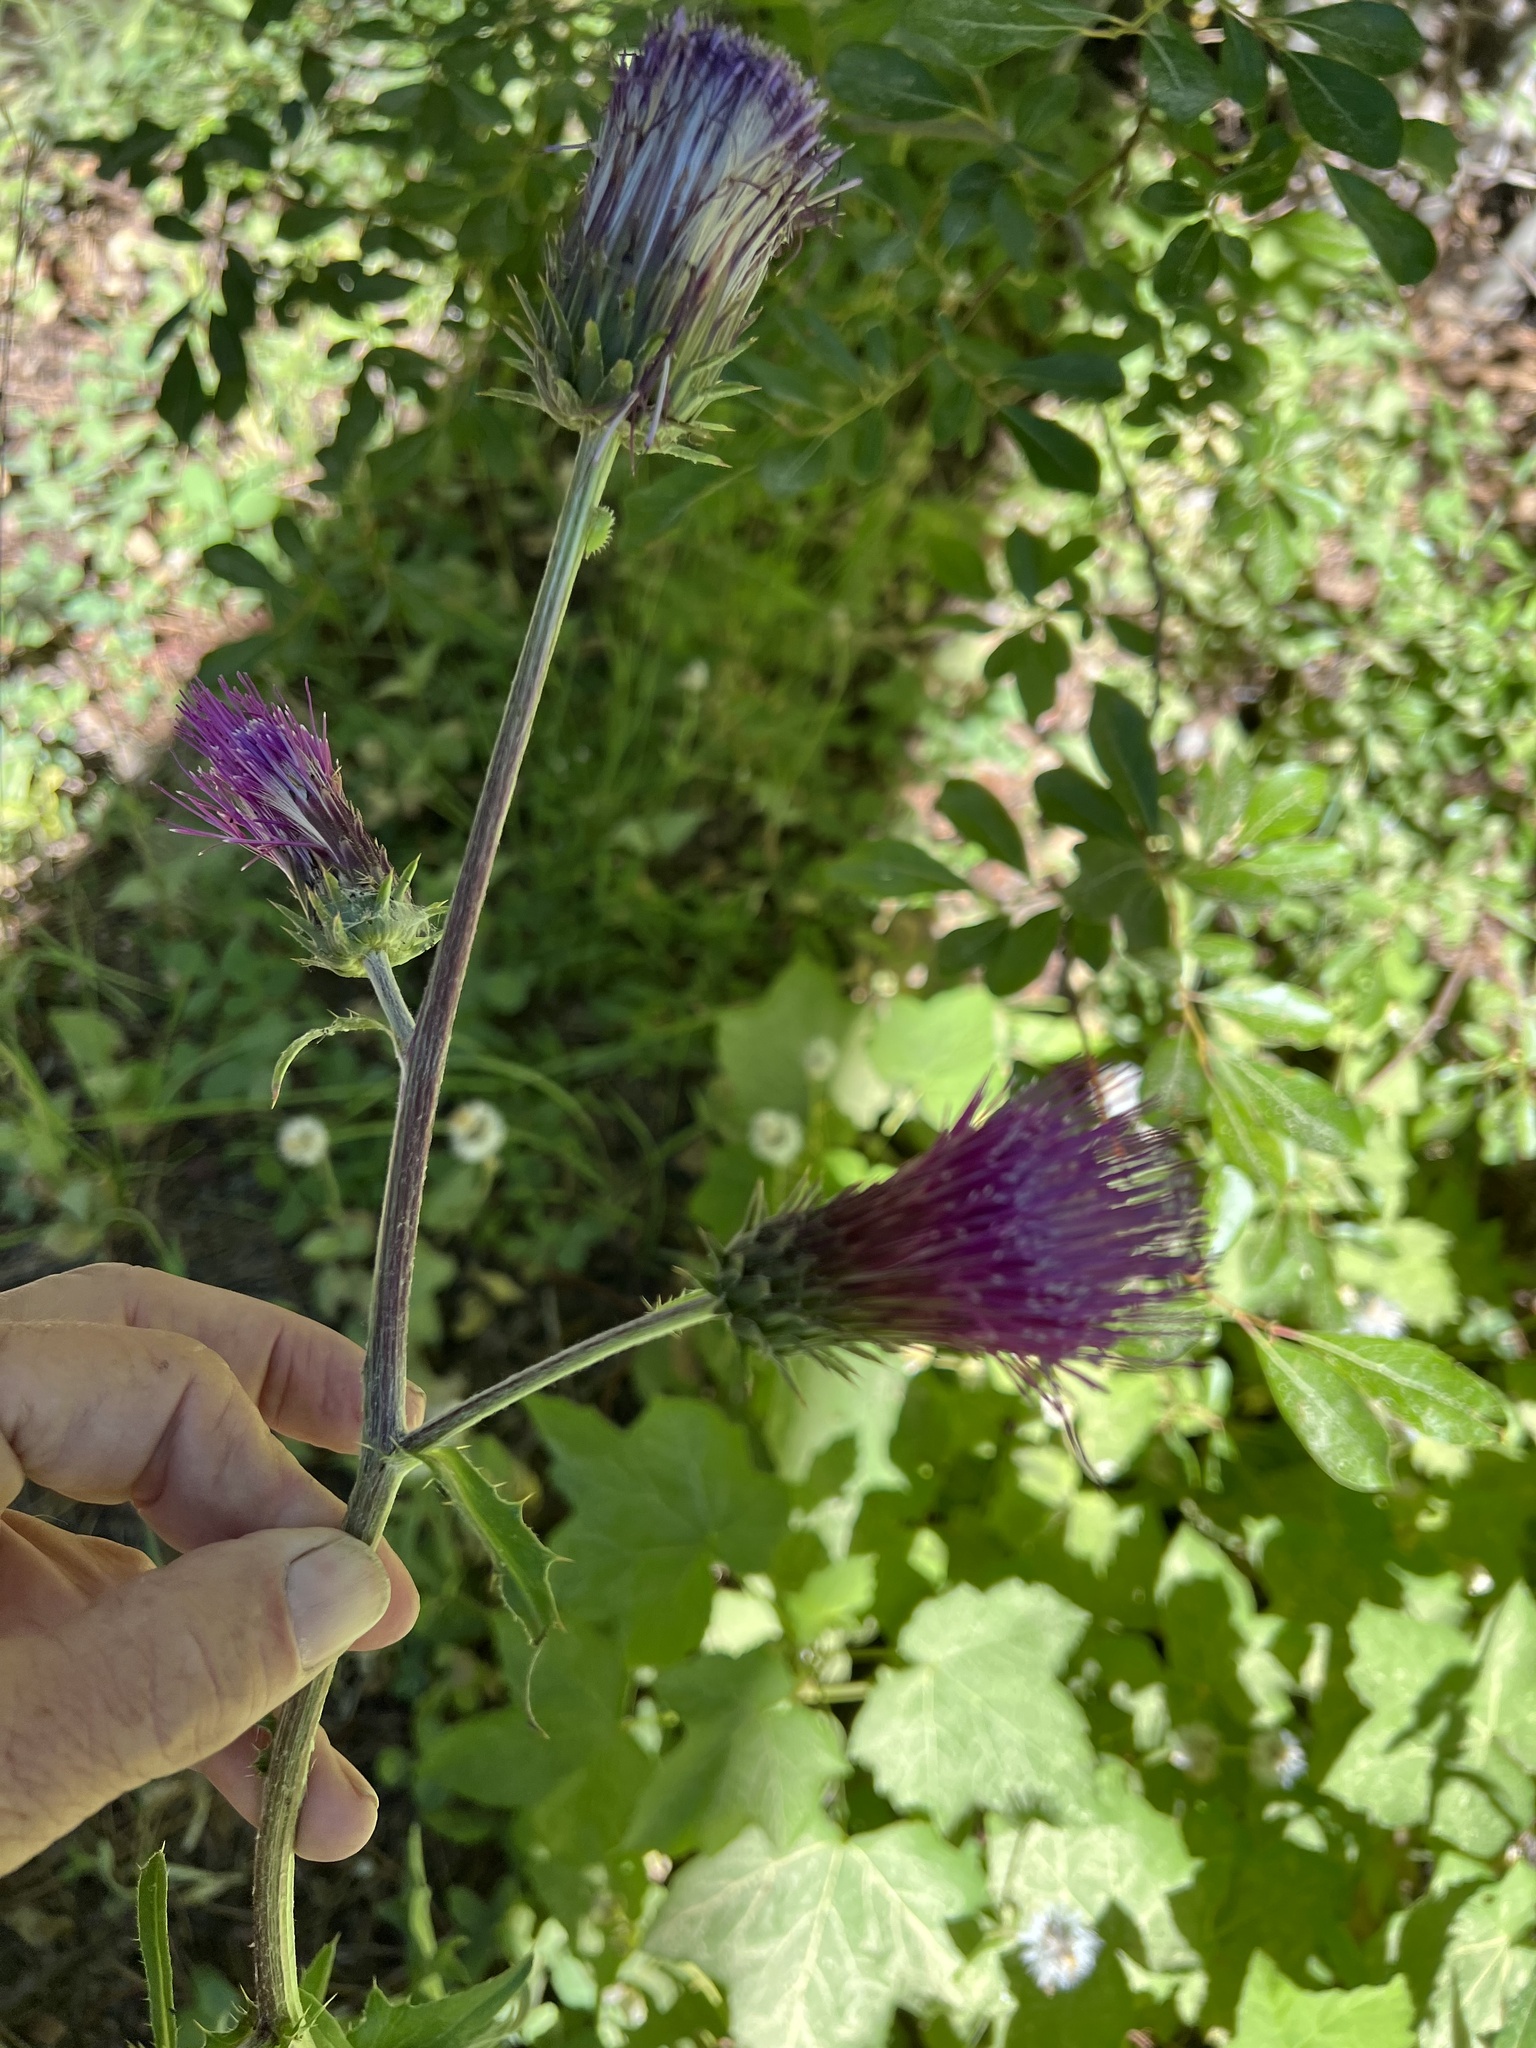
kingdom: Plantae
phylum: Tracheophyta
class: Magnoliopsida
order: Asterales
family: Asteraceae
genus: Cirsium
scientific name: Cirsium andersonii
